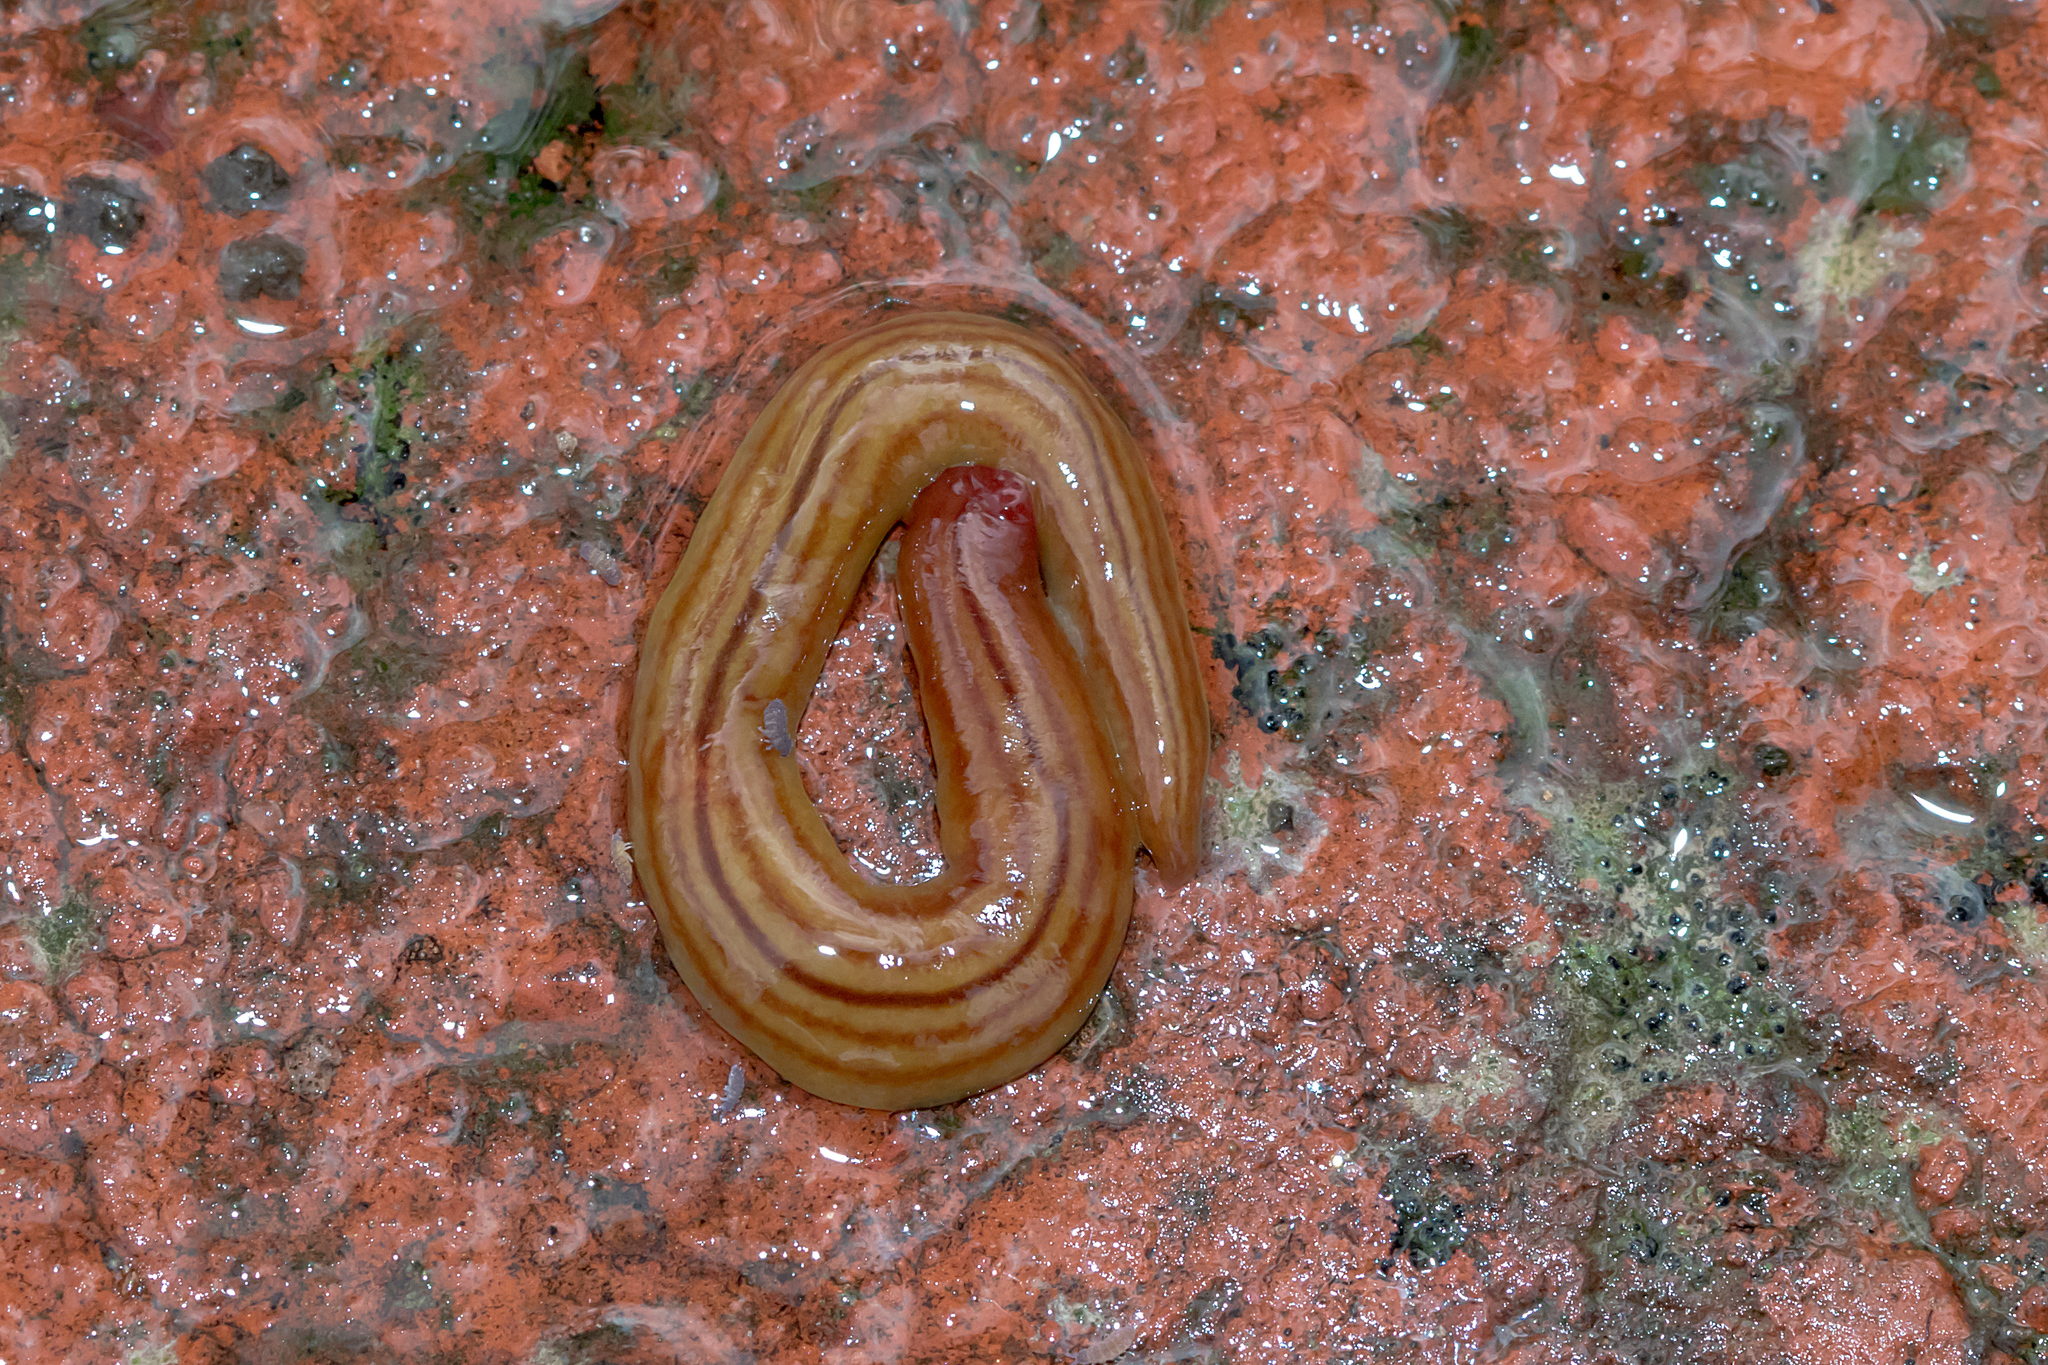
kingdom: Animalia
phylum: Platyhelminthes
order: Tricladida
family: Geoplanidae
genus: Fletchamia
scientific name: Fletchamia quinquelineata
